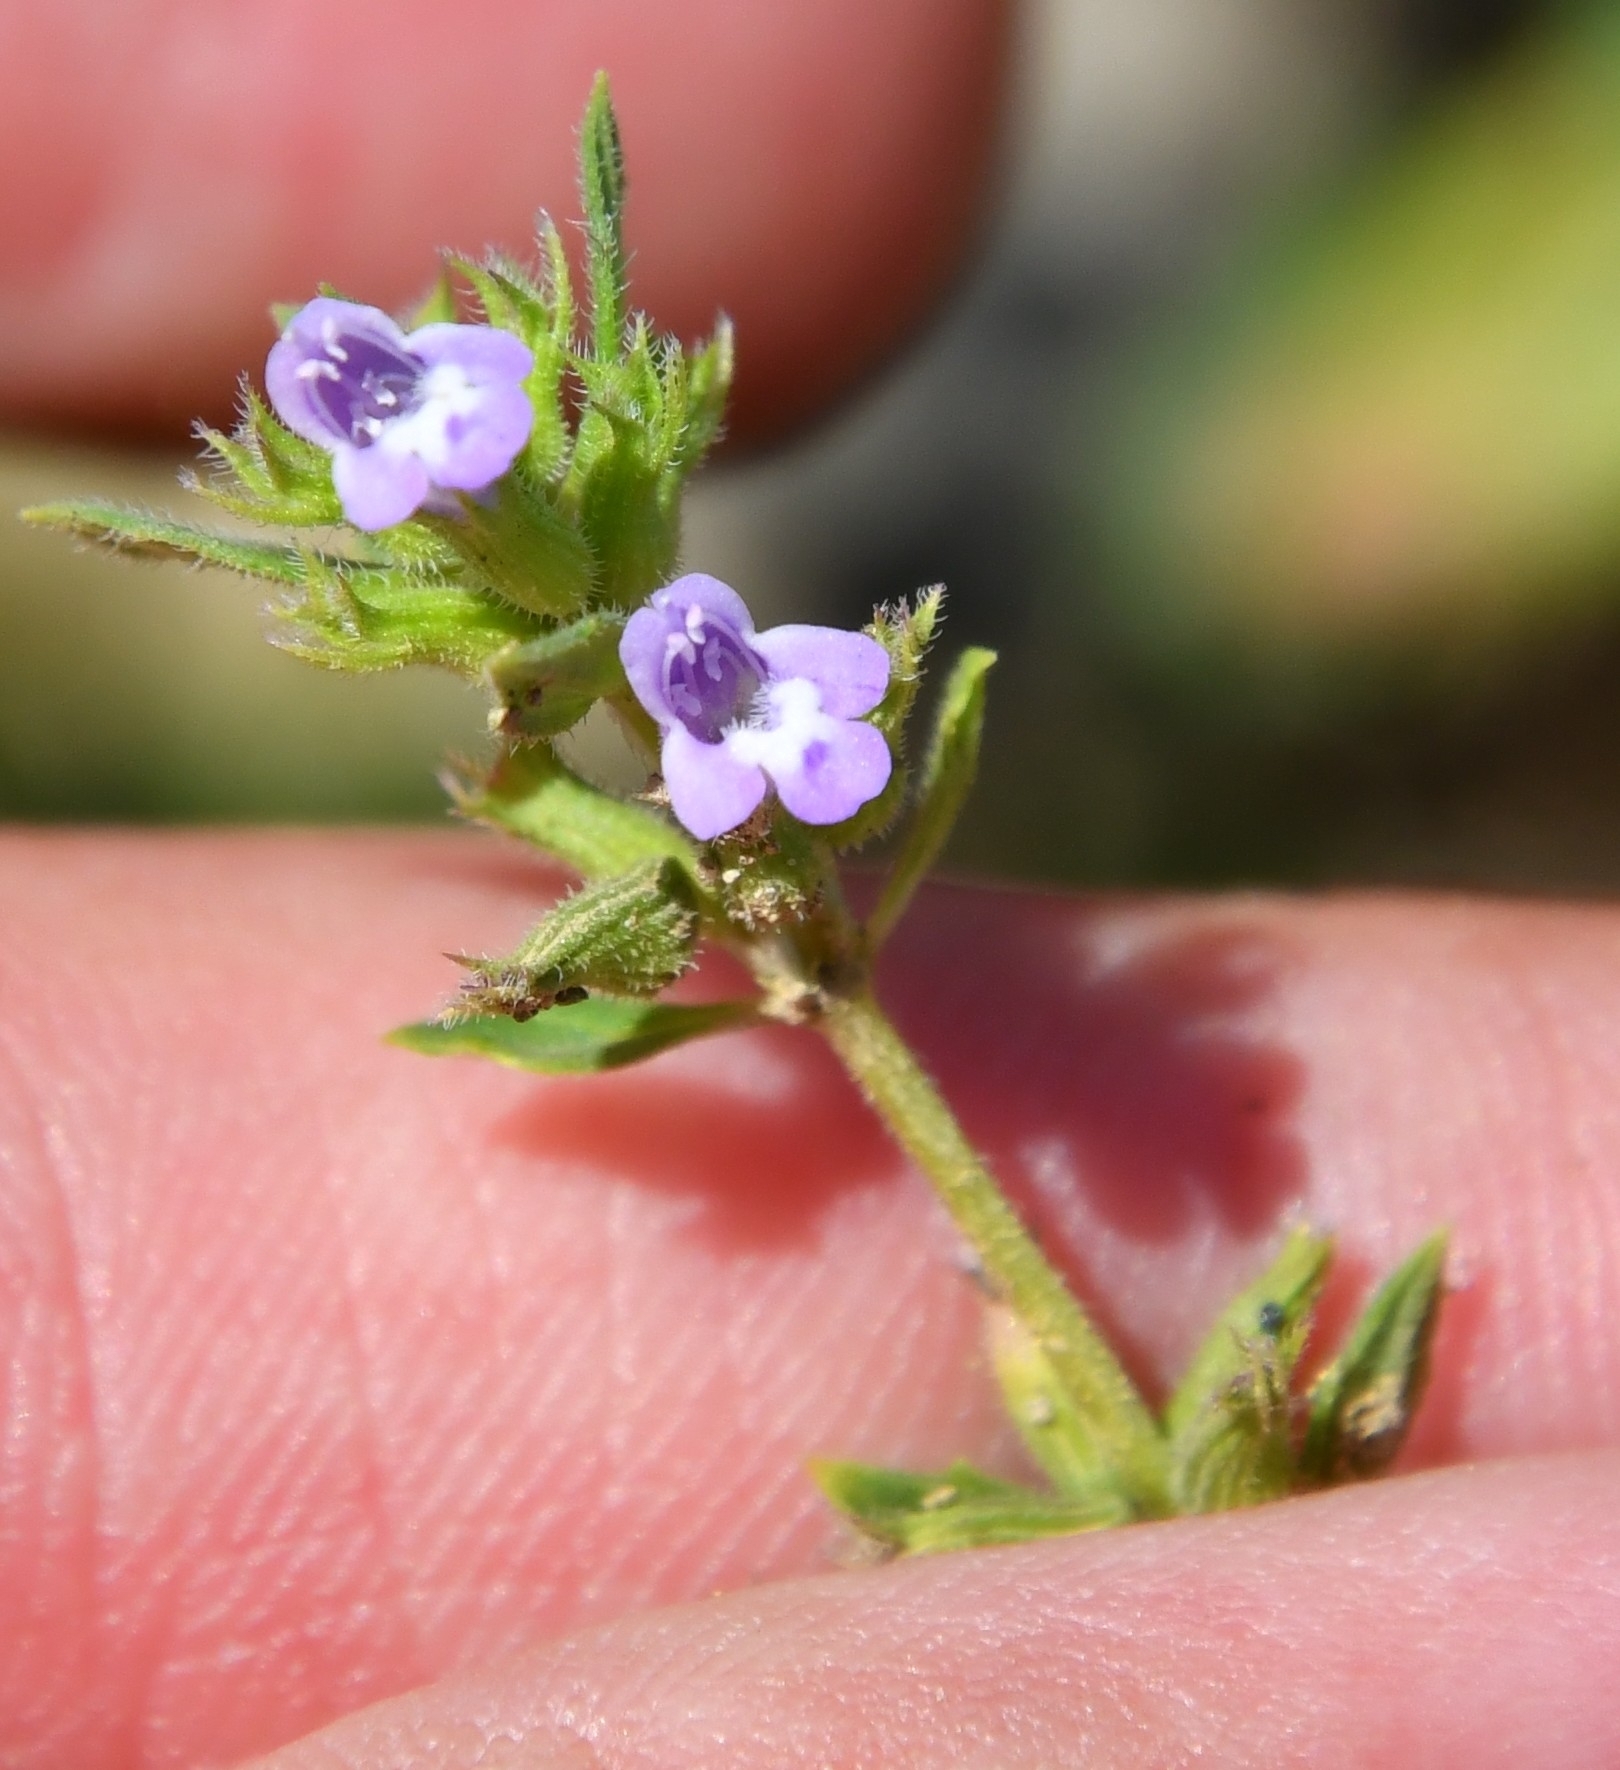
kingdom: Plantae
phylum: Tracheophyta
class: Magnoliopsida
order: Lamiales
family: Lamiaceae
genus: Clinopodium
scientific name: Clinopodium acinos
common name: Basil thyme
